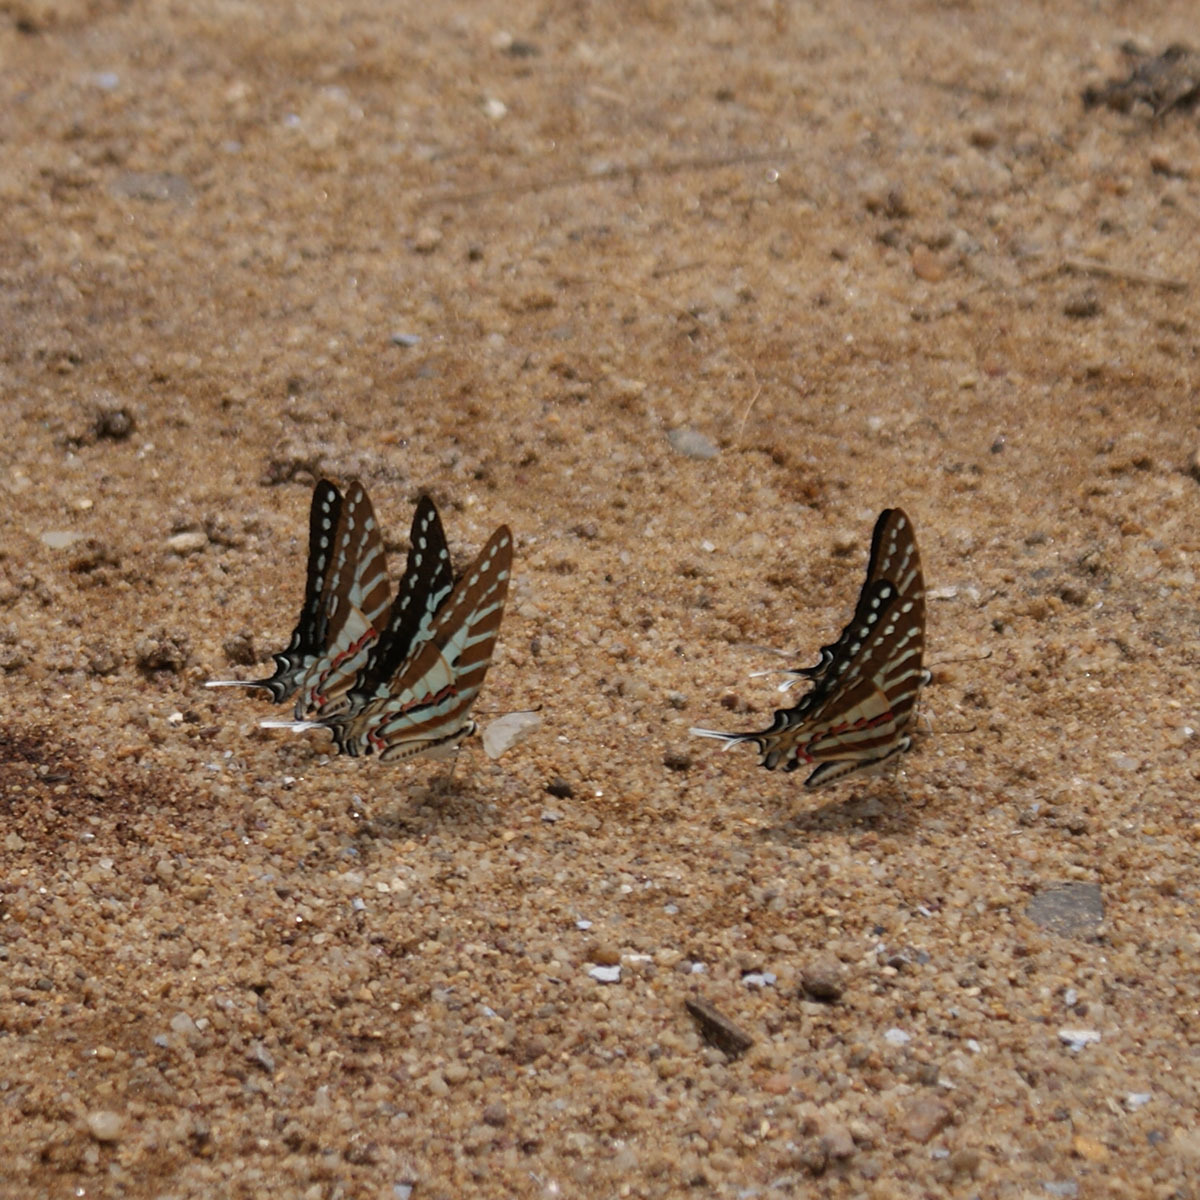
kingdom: Animalia
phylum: Arthropoda
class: Insecta
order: Lepidoptera
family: Papilionidae
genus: Graphium
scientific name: Graphium nomius
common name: Spot swordtail
